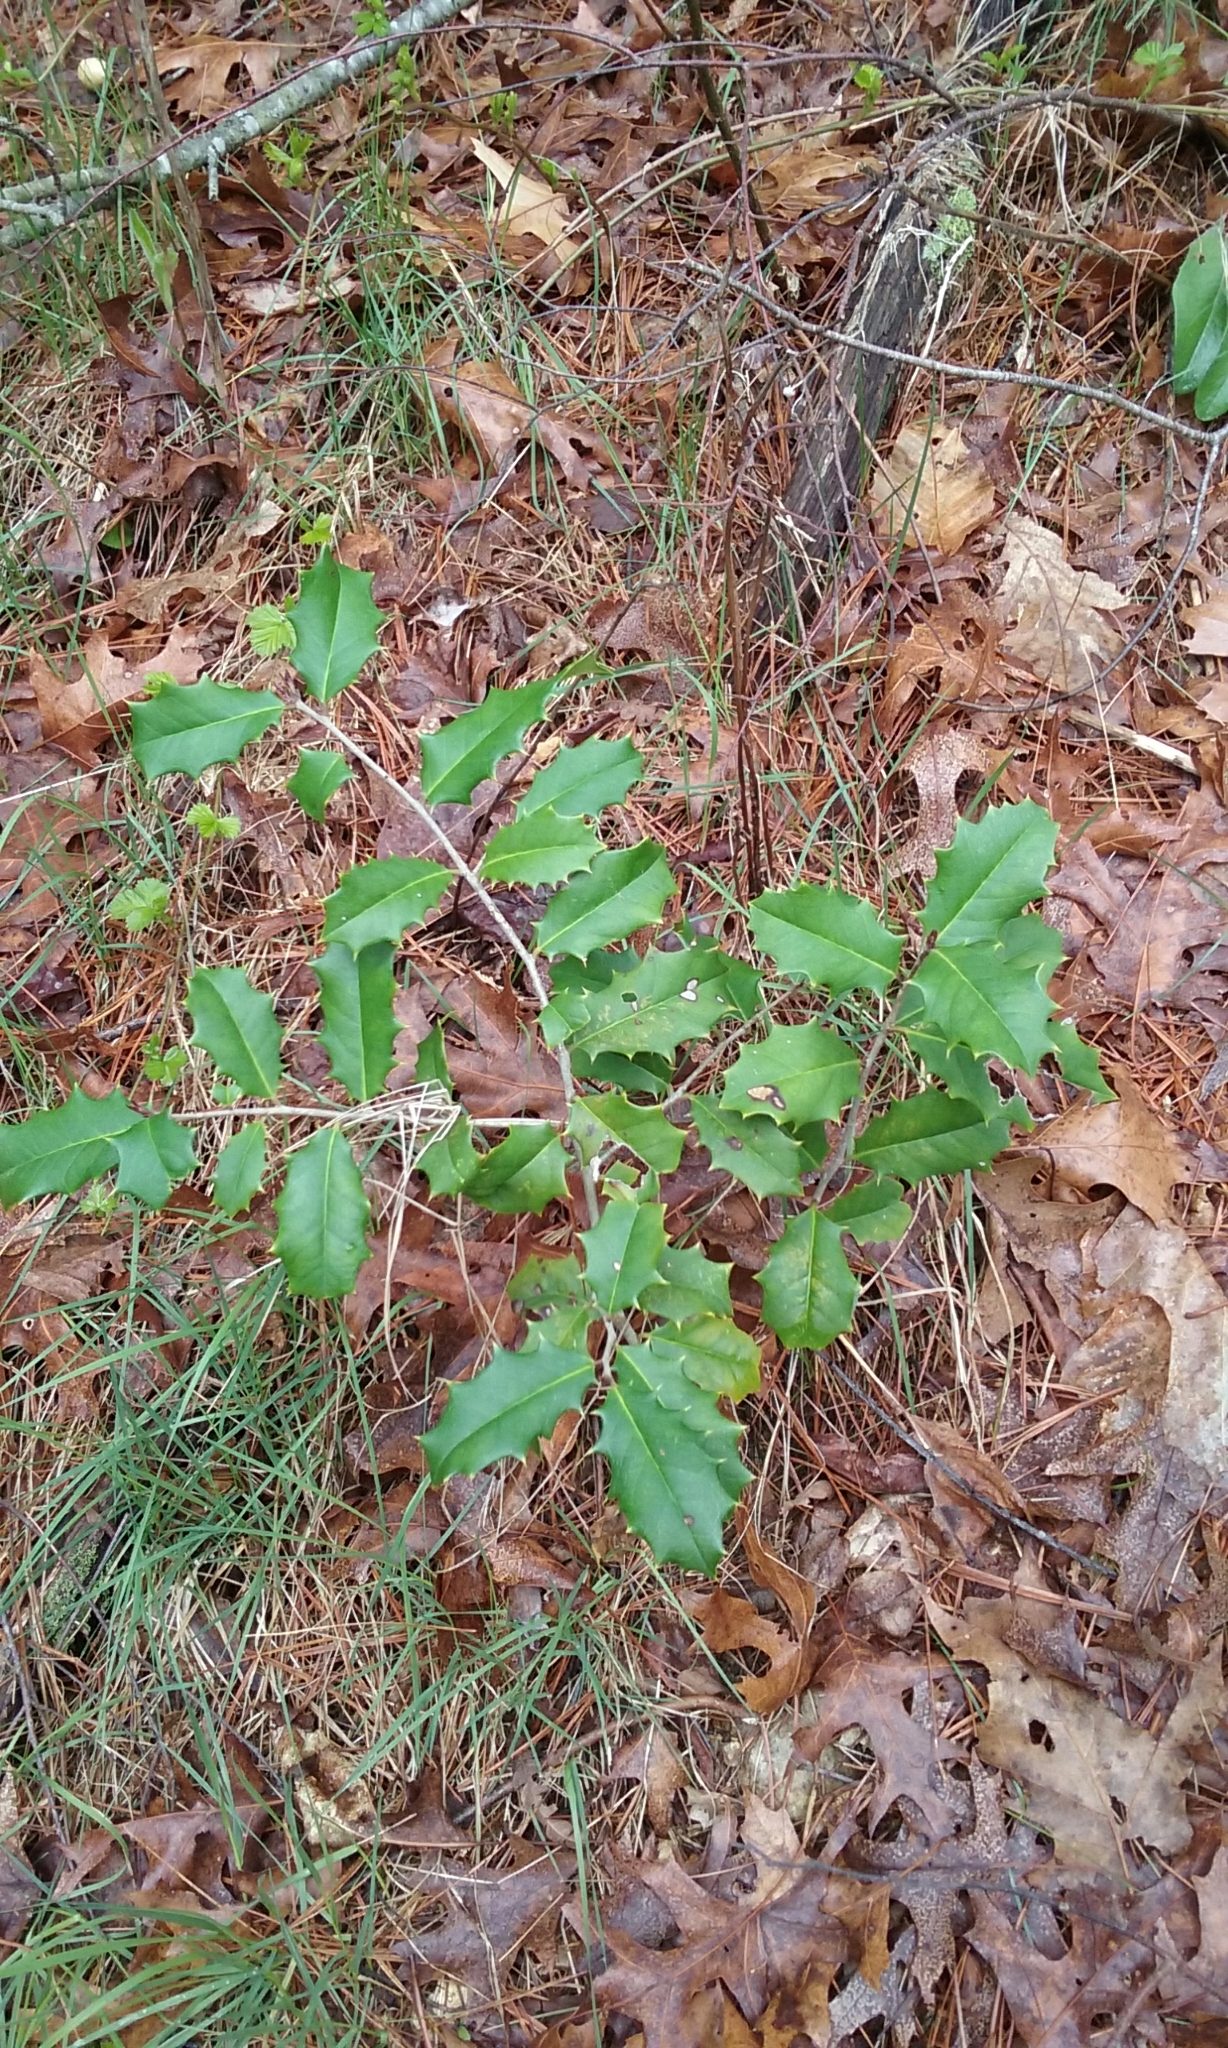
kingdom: Plantae
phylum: Tracheophyta
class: Magnoliopsida
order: Aquifoliales
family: Aquifoliaceae
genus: Ilex
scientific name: Ilex opaca
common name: American holly
